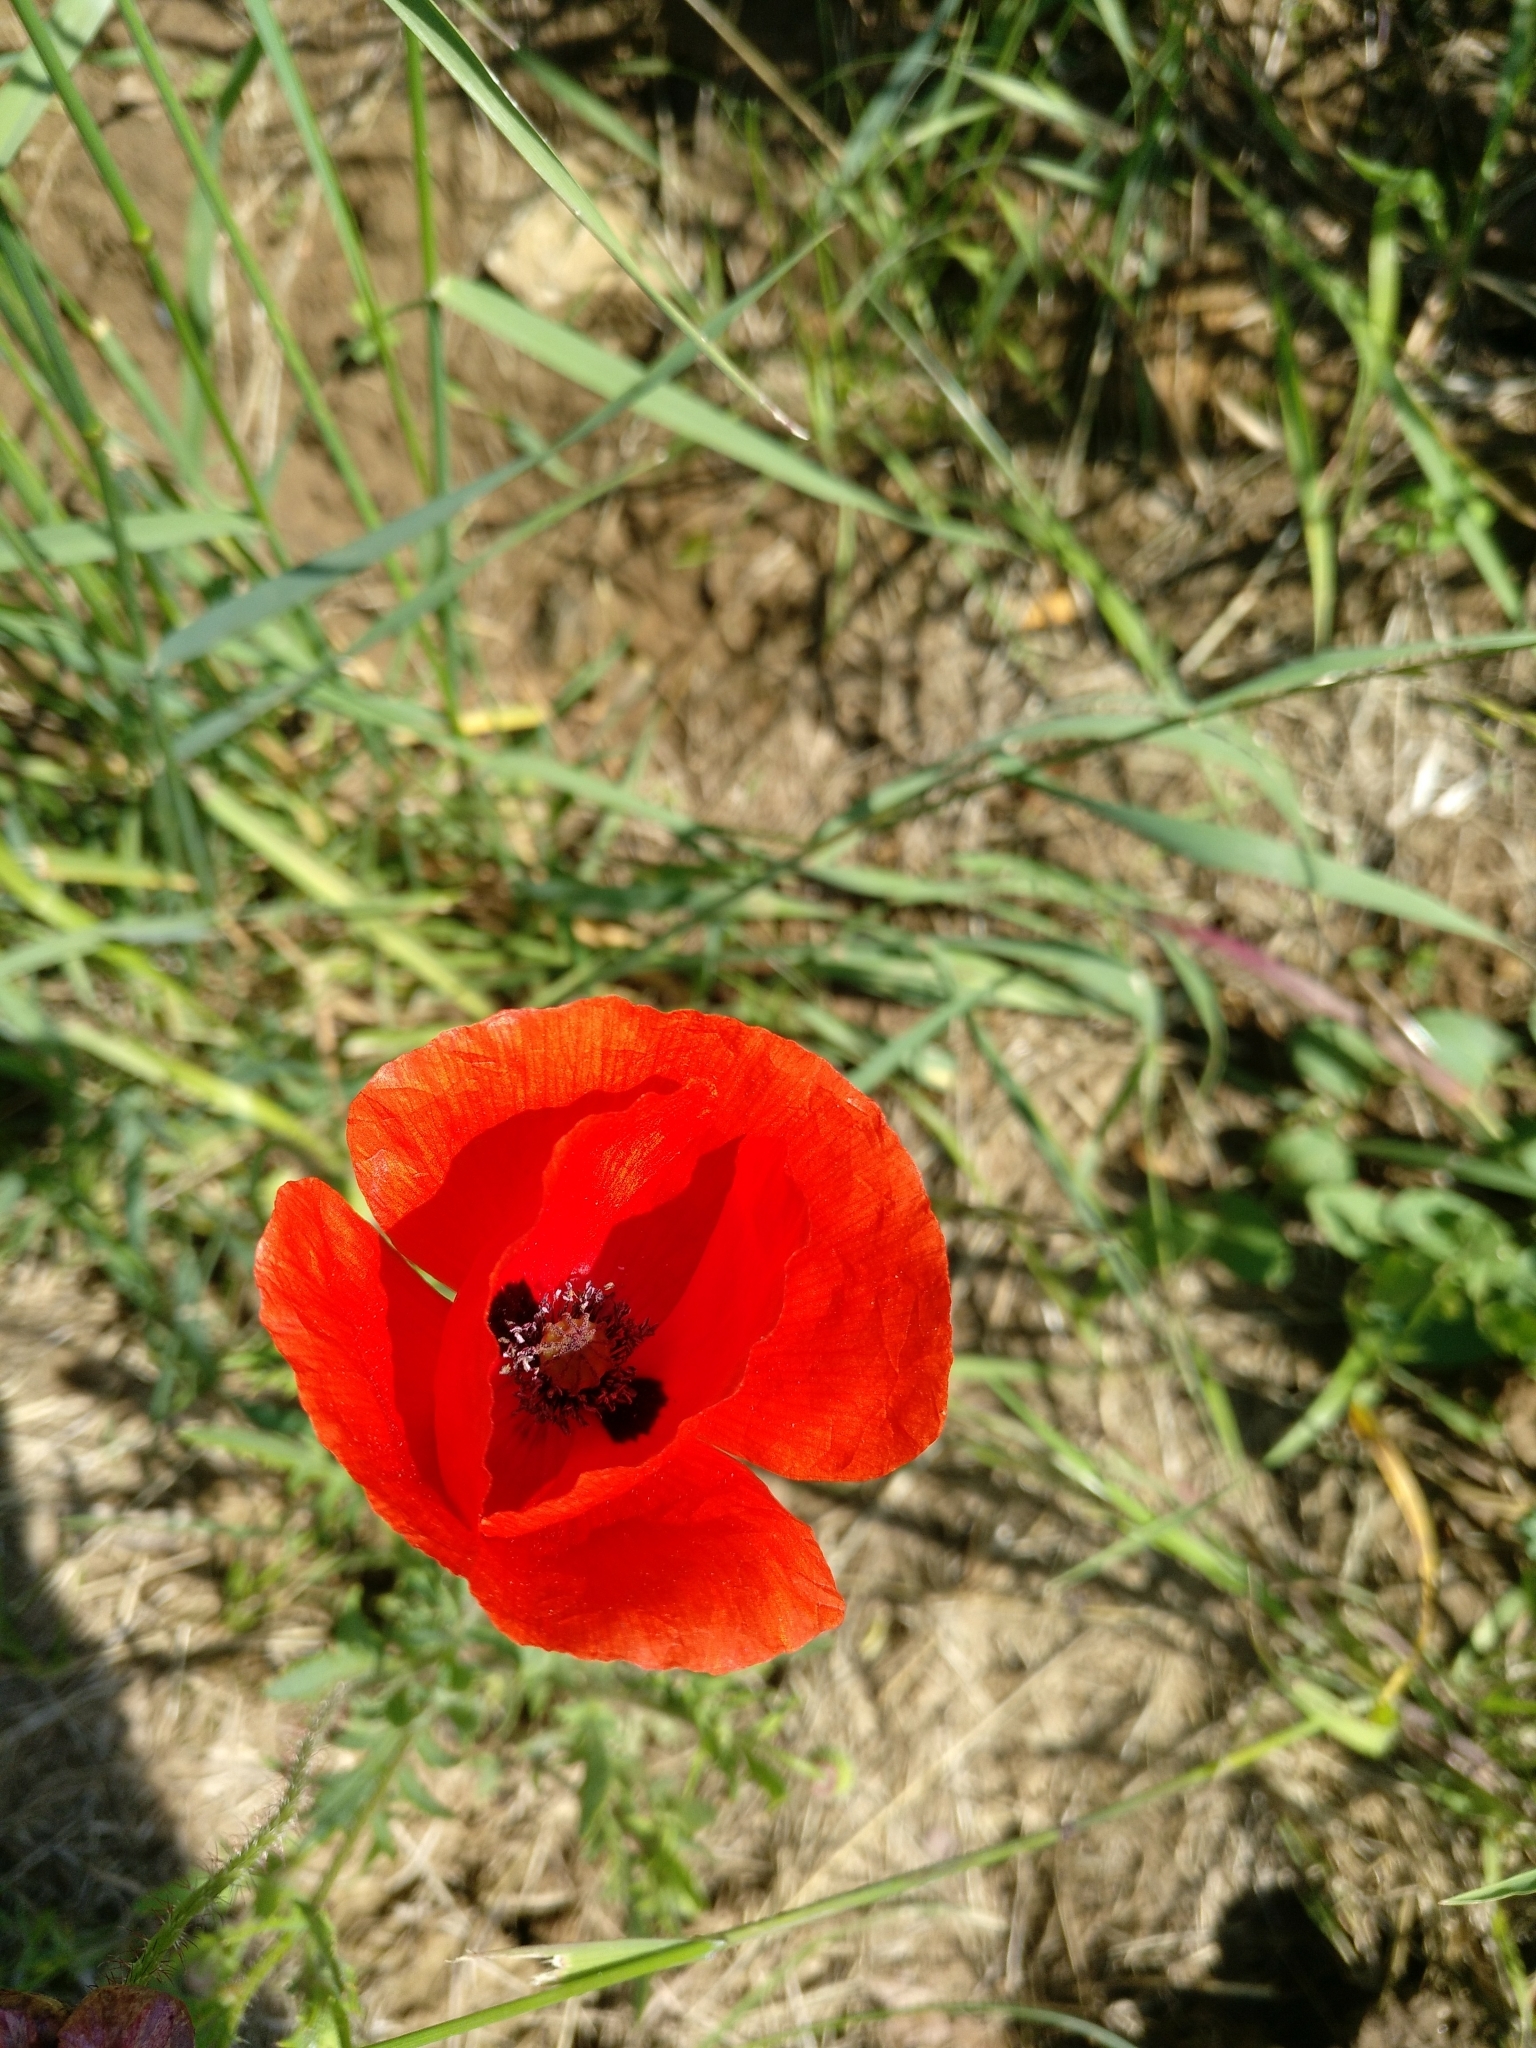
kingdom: Plantae
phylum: Tracheophyta
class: Magnoliopsida
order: Ranunculales
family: Papaveraceae
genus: Papaver
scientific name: Papaver rhoeas
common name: Corn poppy
